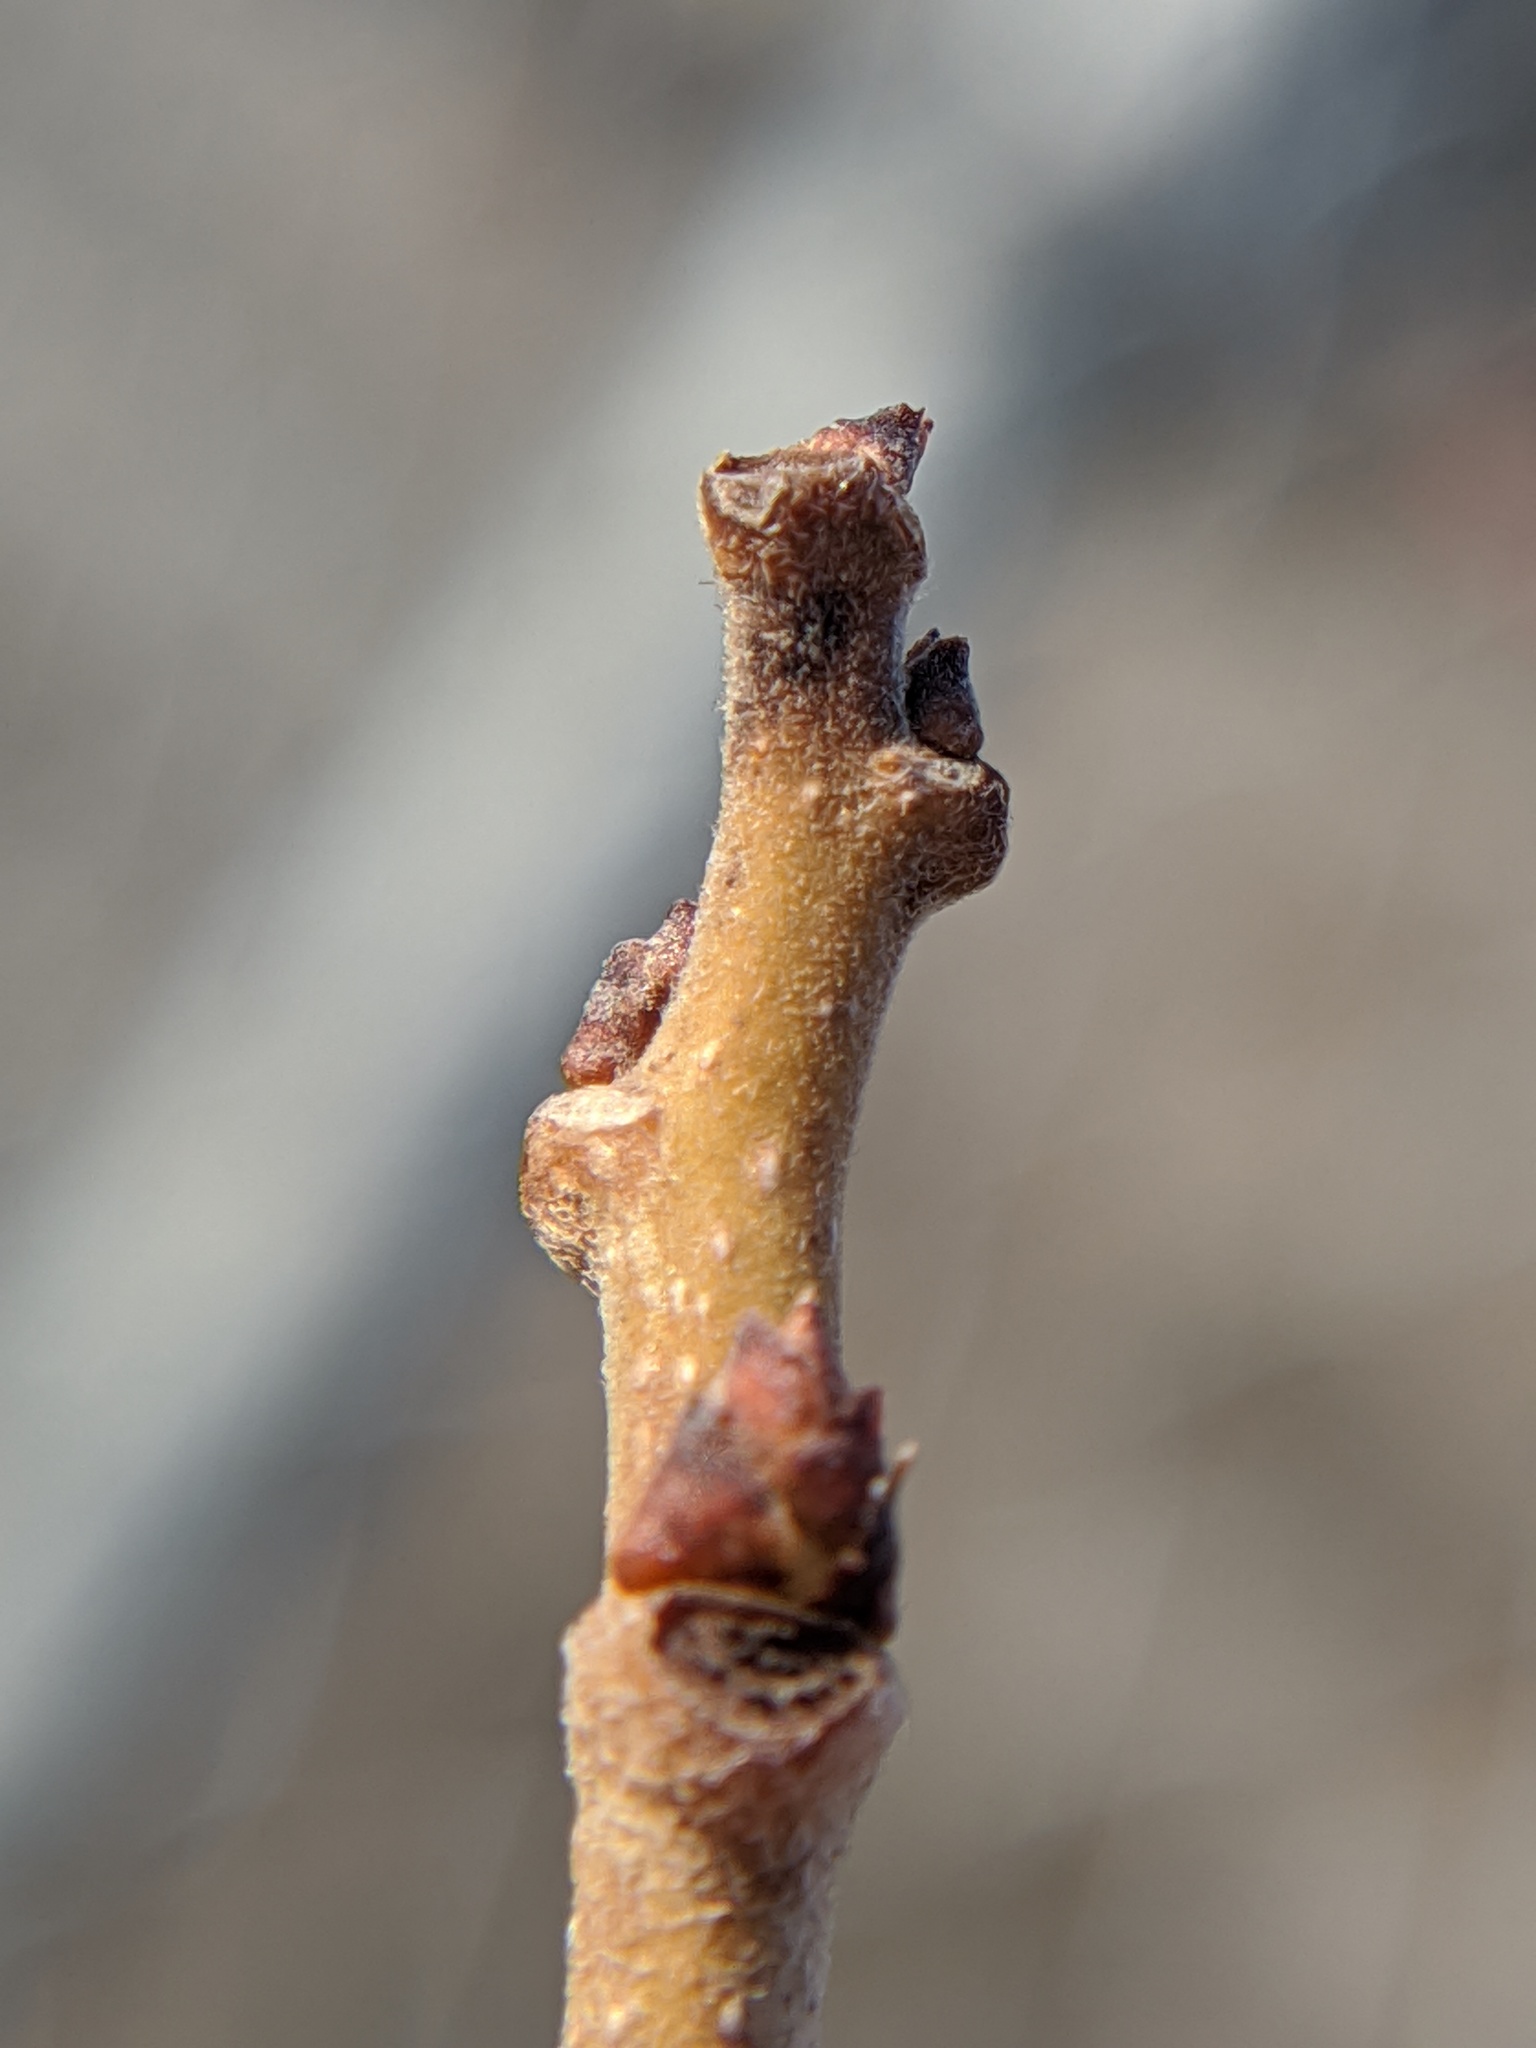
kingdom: Plantae
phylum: Tracheophyta
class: Magnoliopsida
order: Rosales
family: Moraceae
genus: Morus
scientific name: Morus alba
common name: White mulberry
